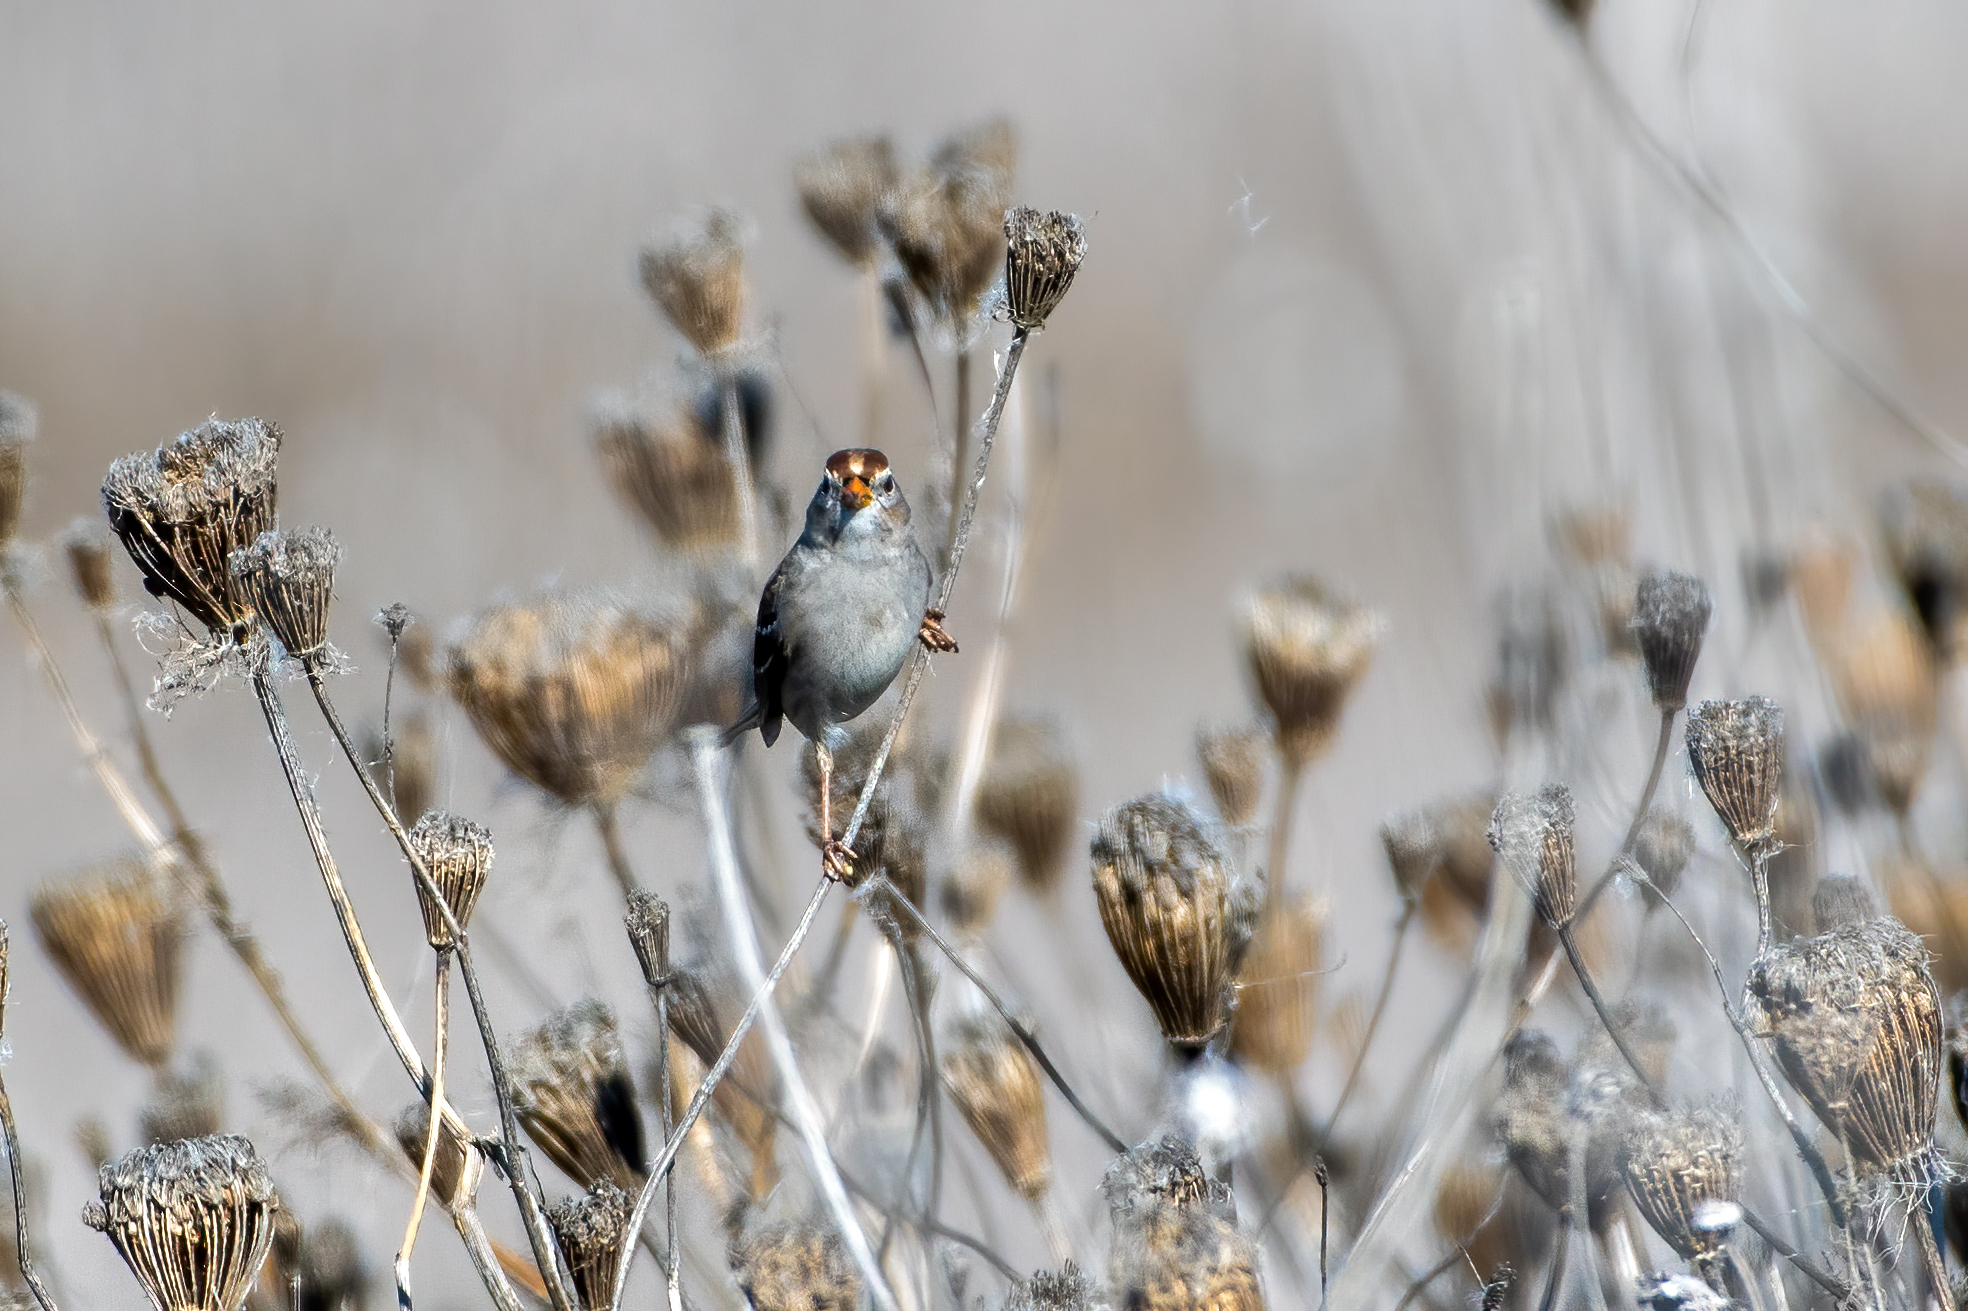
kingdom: Animalia
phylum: Chordata
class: Aves
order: Passeriformes
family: Passerellidae
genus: Zonotrichia
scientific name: Zonotrichia leucophrys
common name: White-crowned sparrow
